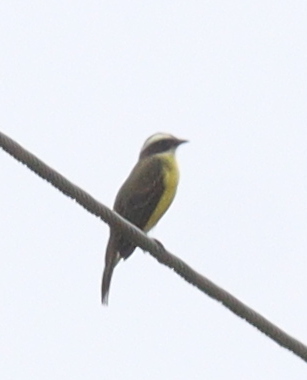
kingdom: Animalia
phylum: Chordata
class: Aves
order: Passeriformes
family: Tyrannidae
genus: Myiozetetes
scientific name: Myiozetetes similis
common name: Social flycatcher
